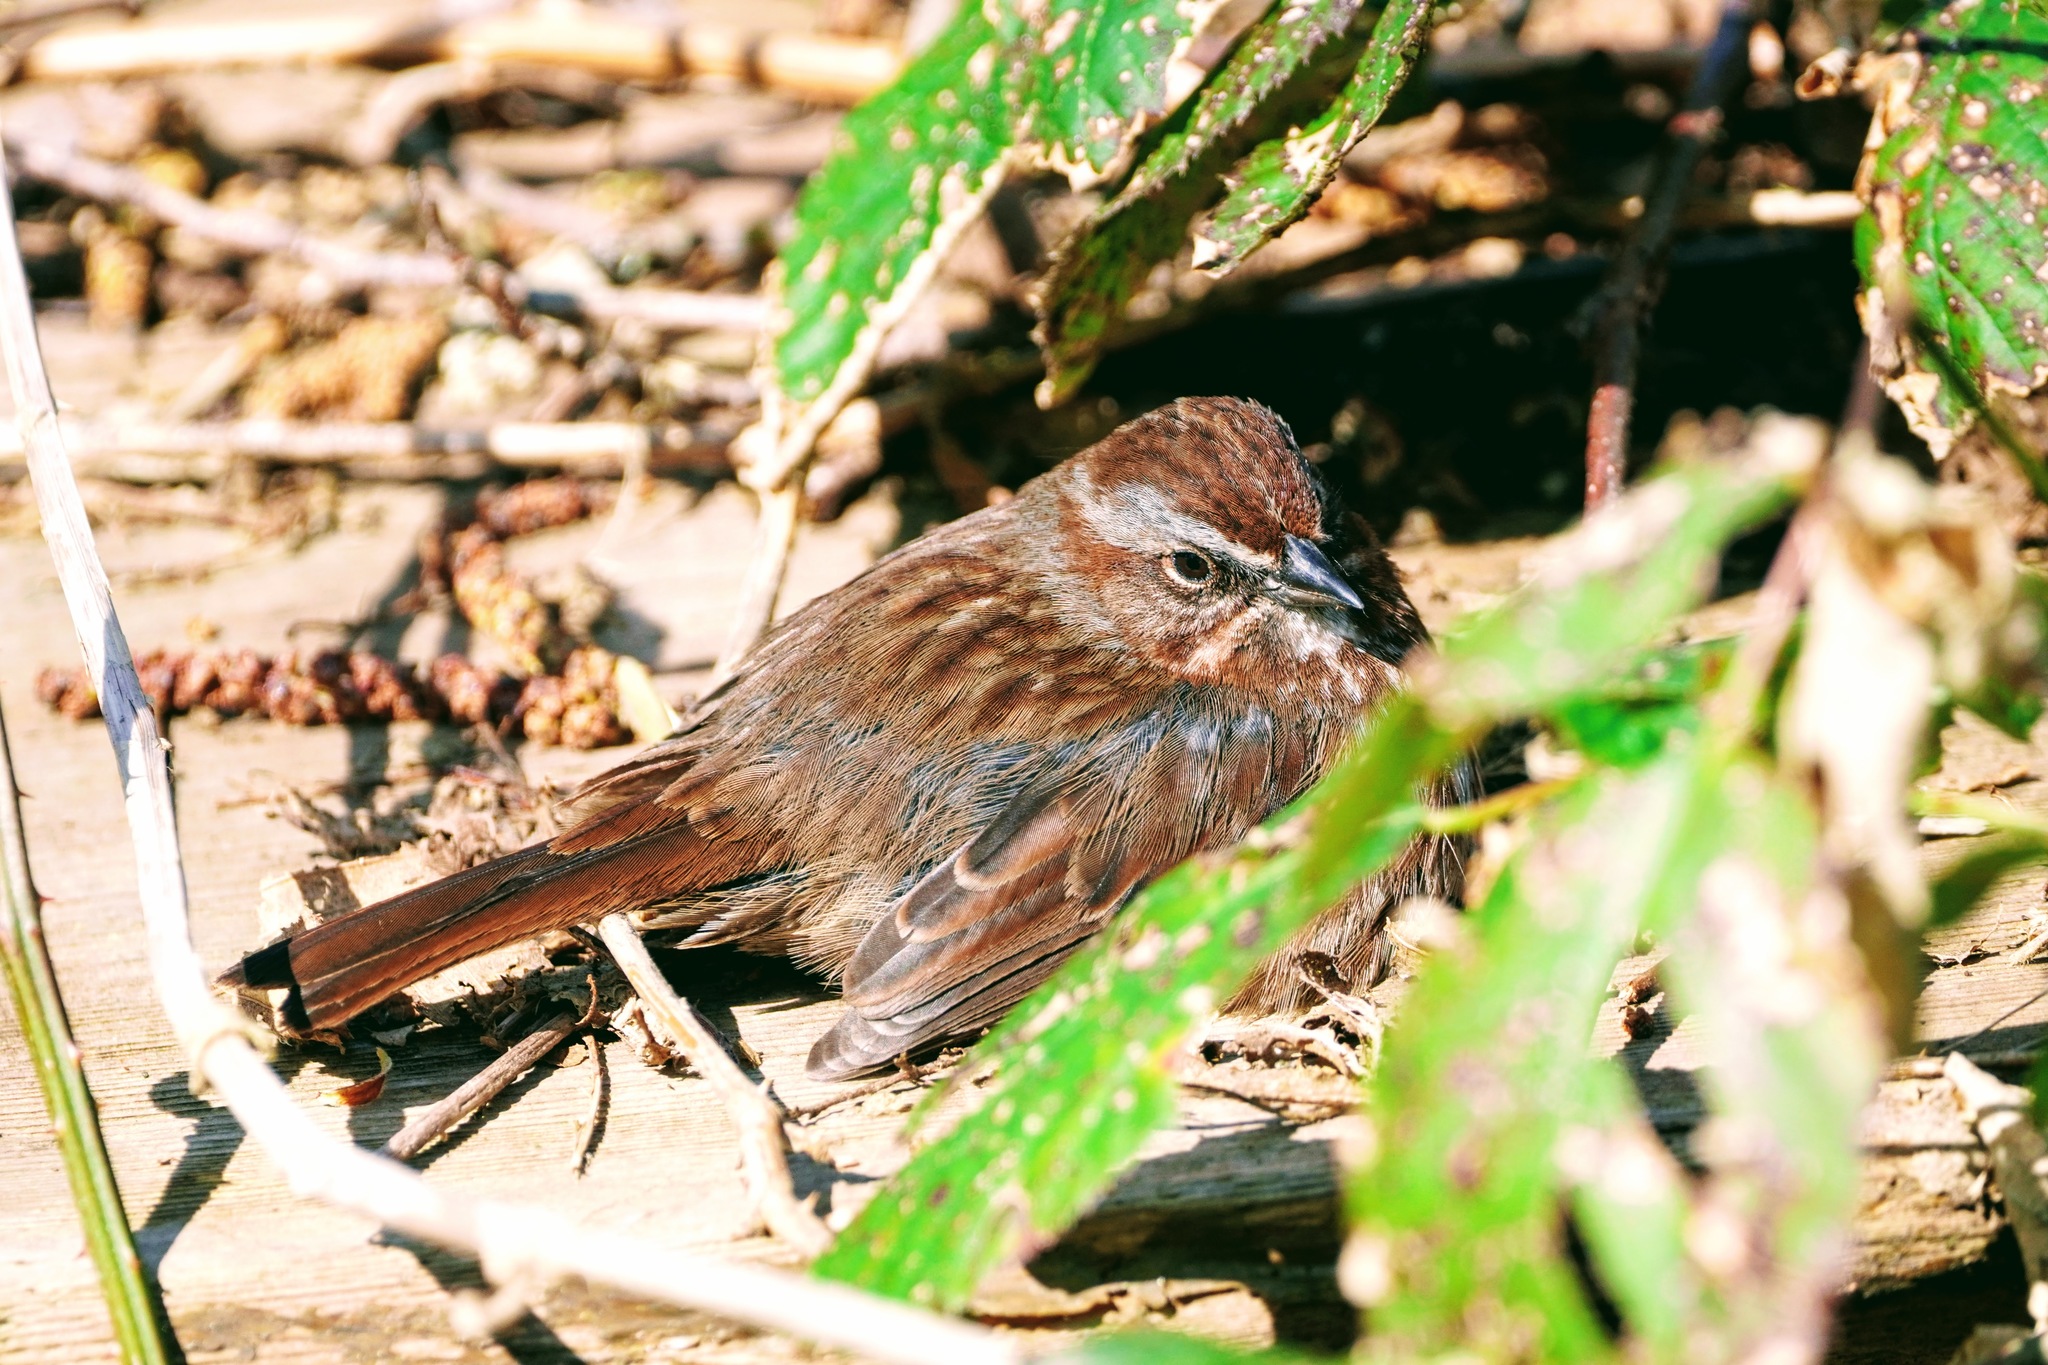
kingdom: Animalia
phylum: Chordata
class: Aves
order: Passeriformes
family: Passerellidae
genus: Melospiza
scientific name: Melospiza melodia
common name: Song sparrow
